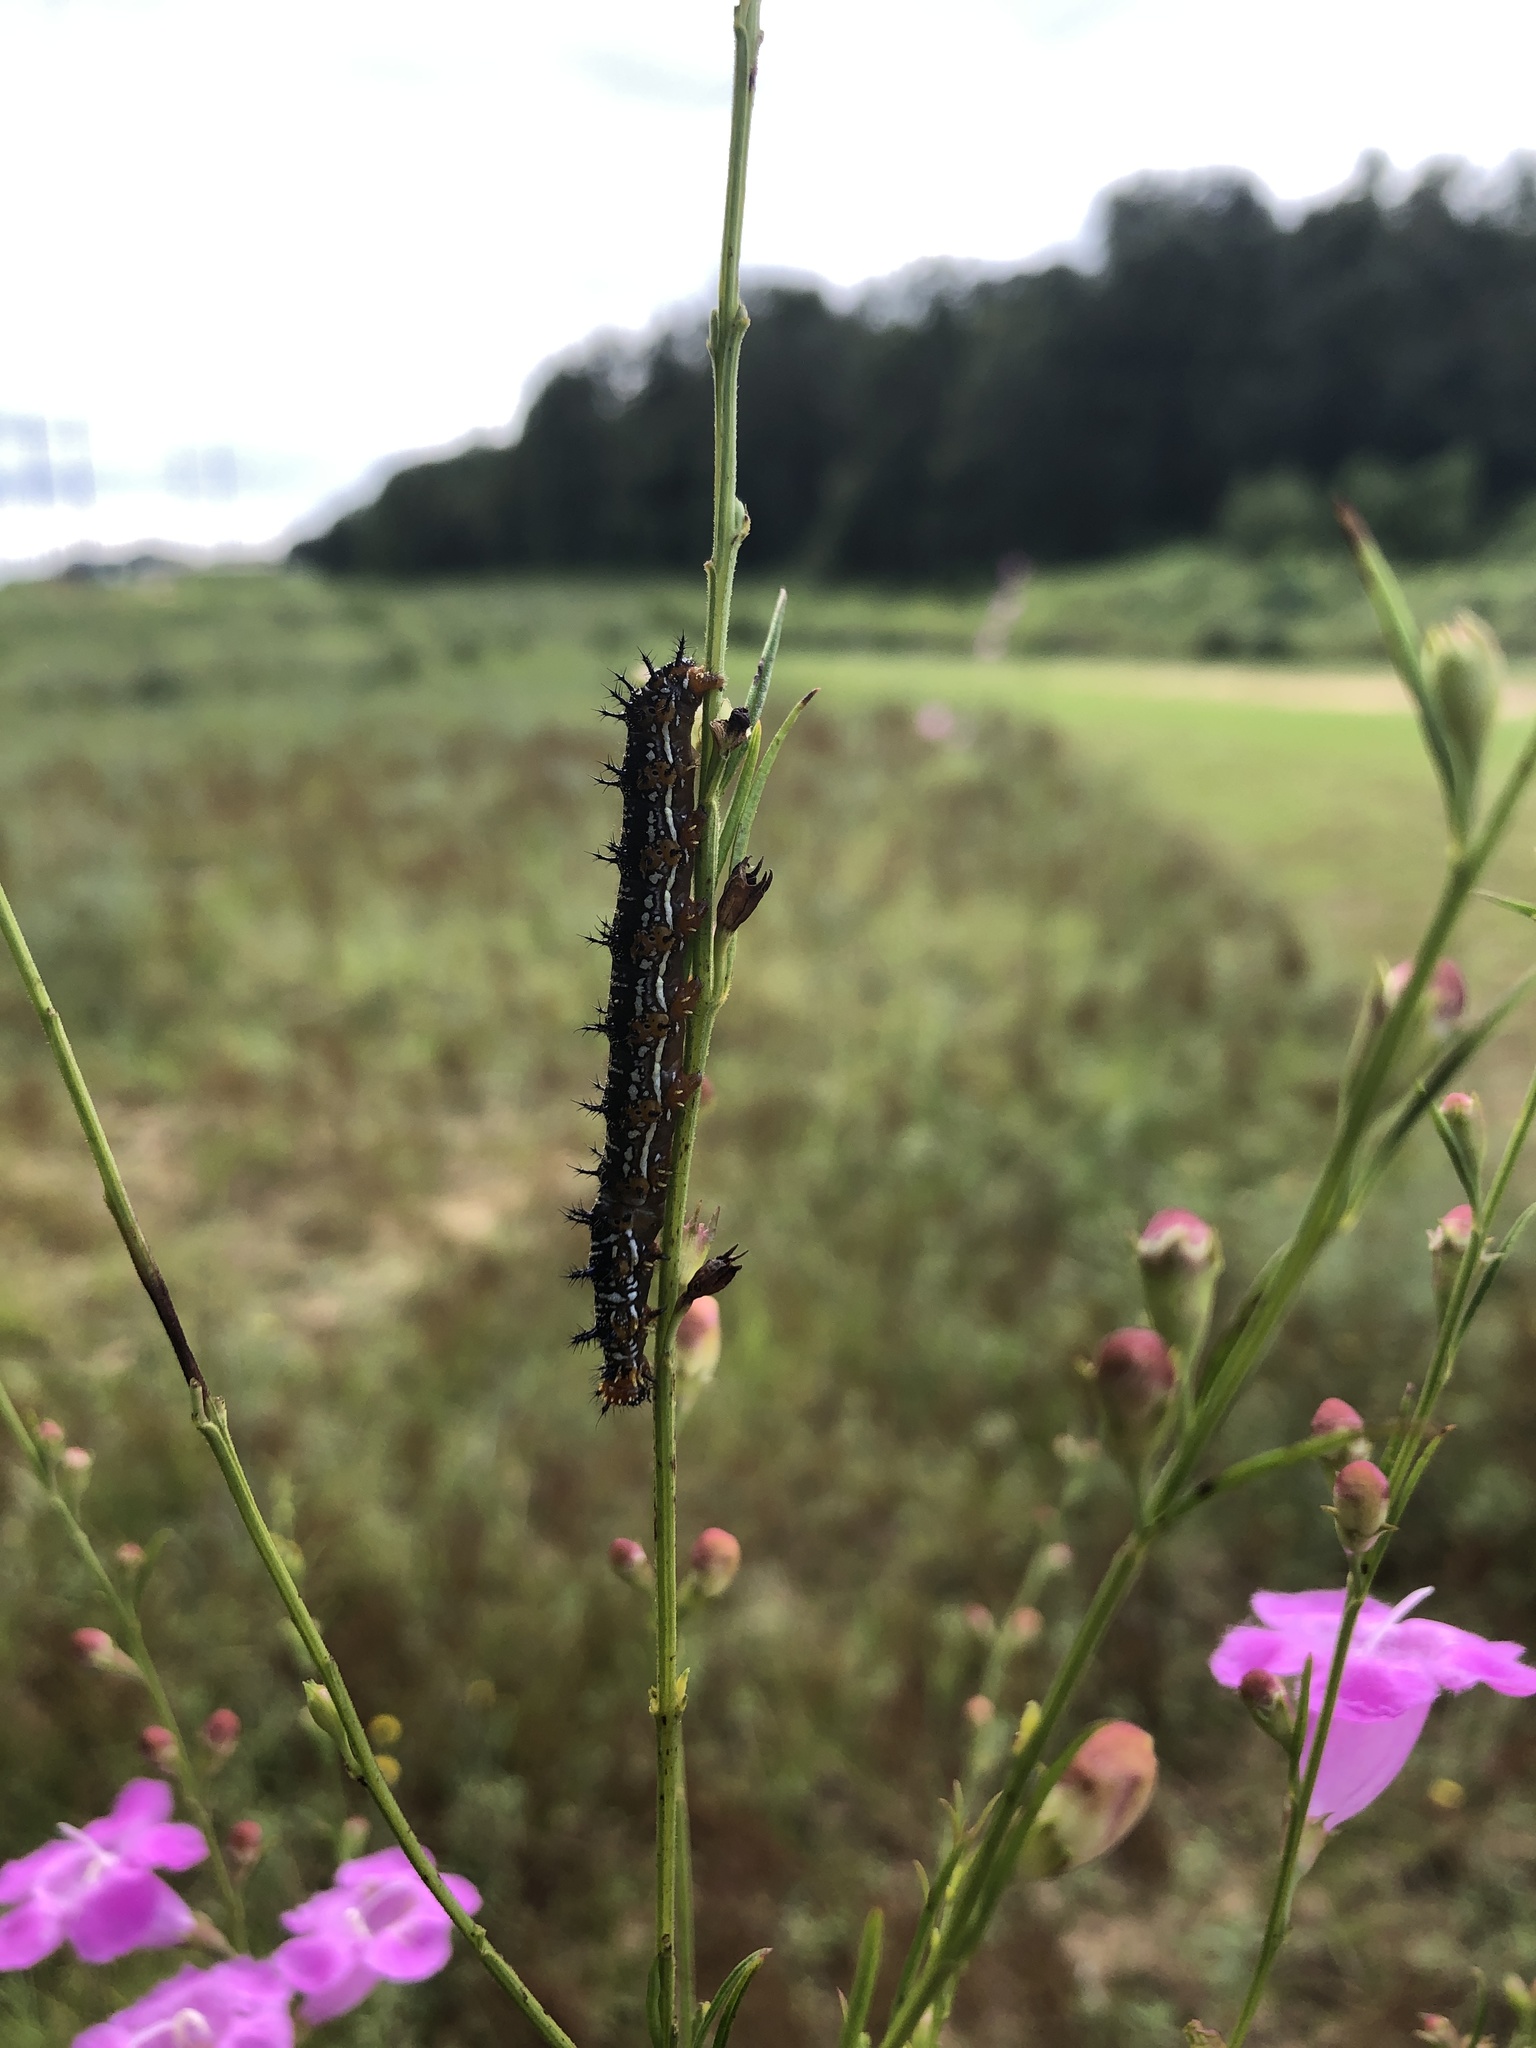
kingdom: Animalia
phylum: Arthropoda
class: Insecta
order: Lepidoptera
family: Nymphalidae
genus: Junonia
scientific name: Junonia coenia
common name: Common buckeye
